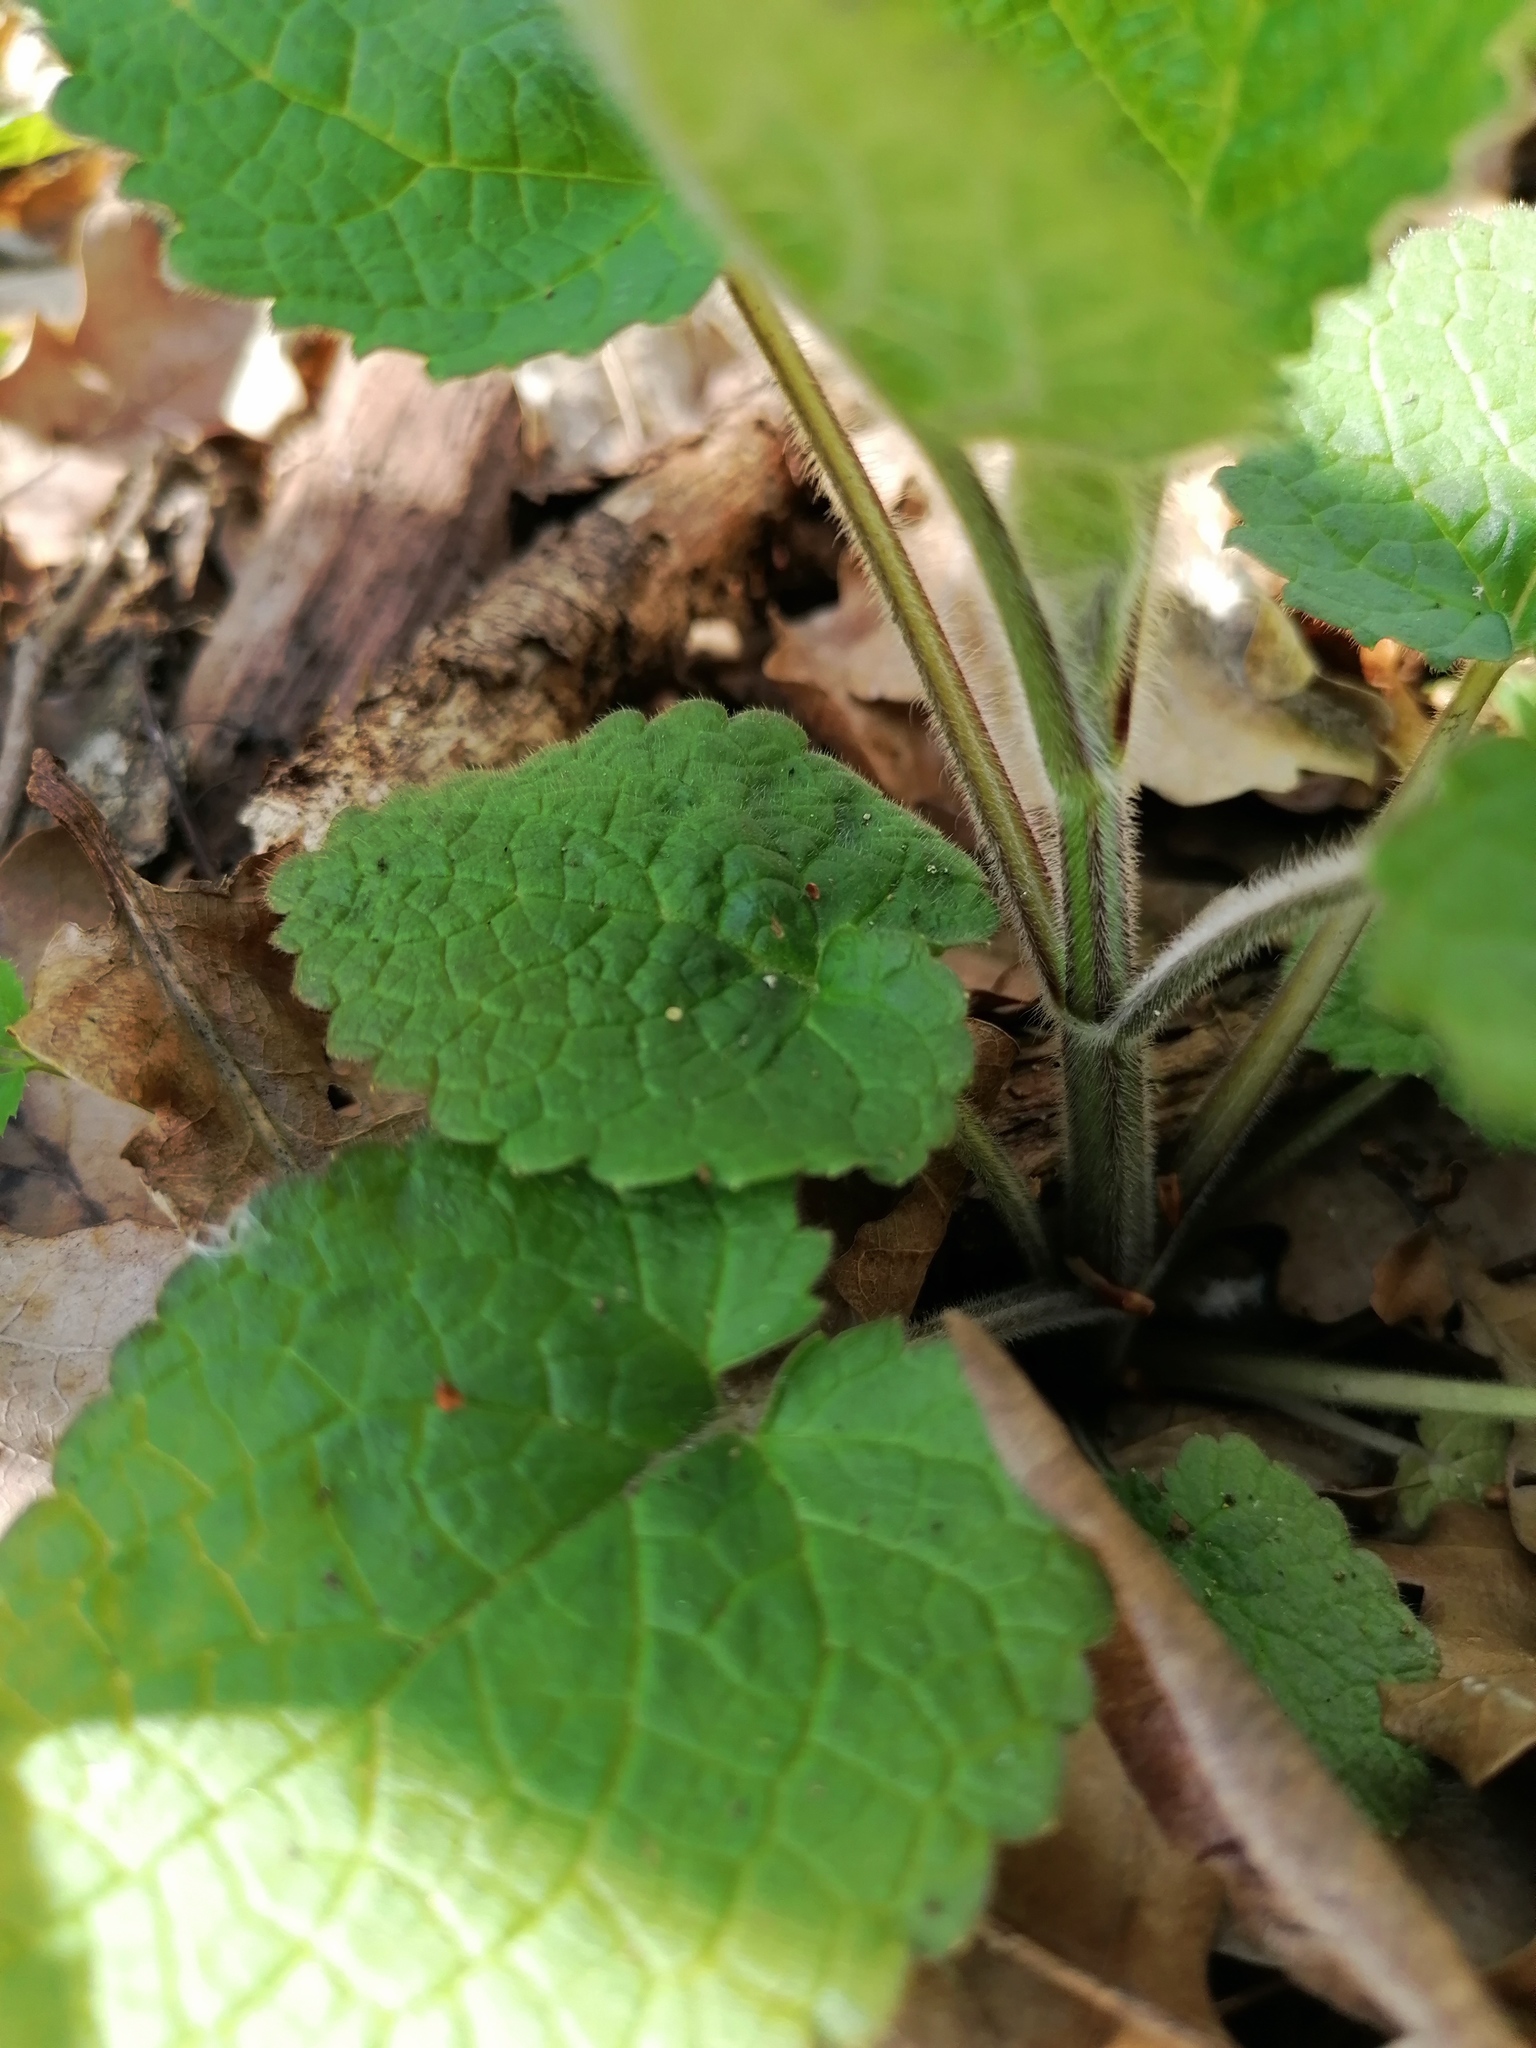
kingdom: Plantae
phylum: Tracheophyta
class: Magnoliopsida
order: Lamiales
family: Lamiaceae
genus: Stachys
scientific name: Stachys sylvatica
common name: Hedge woundwort
